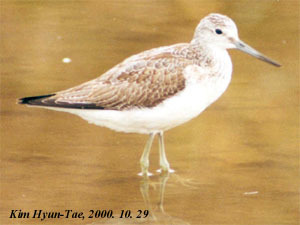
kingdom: Animalia
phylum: Chordata
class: Aves
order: Charadriiformes
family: Scolopacidae
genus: Tringa
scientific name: Tringa nebularia
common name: Common greenshank
